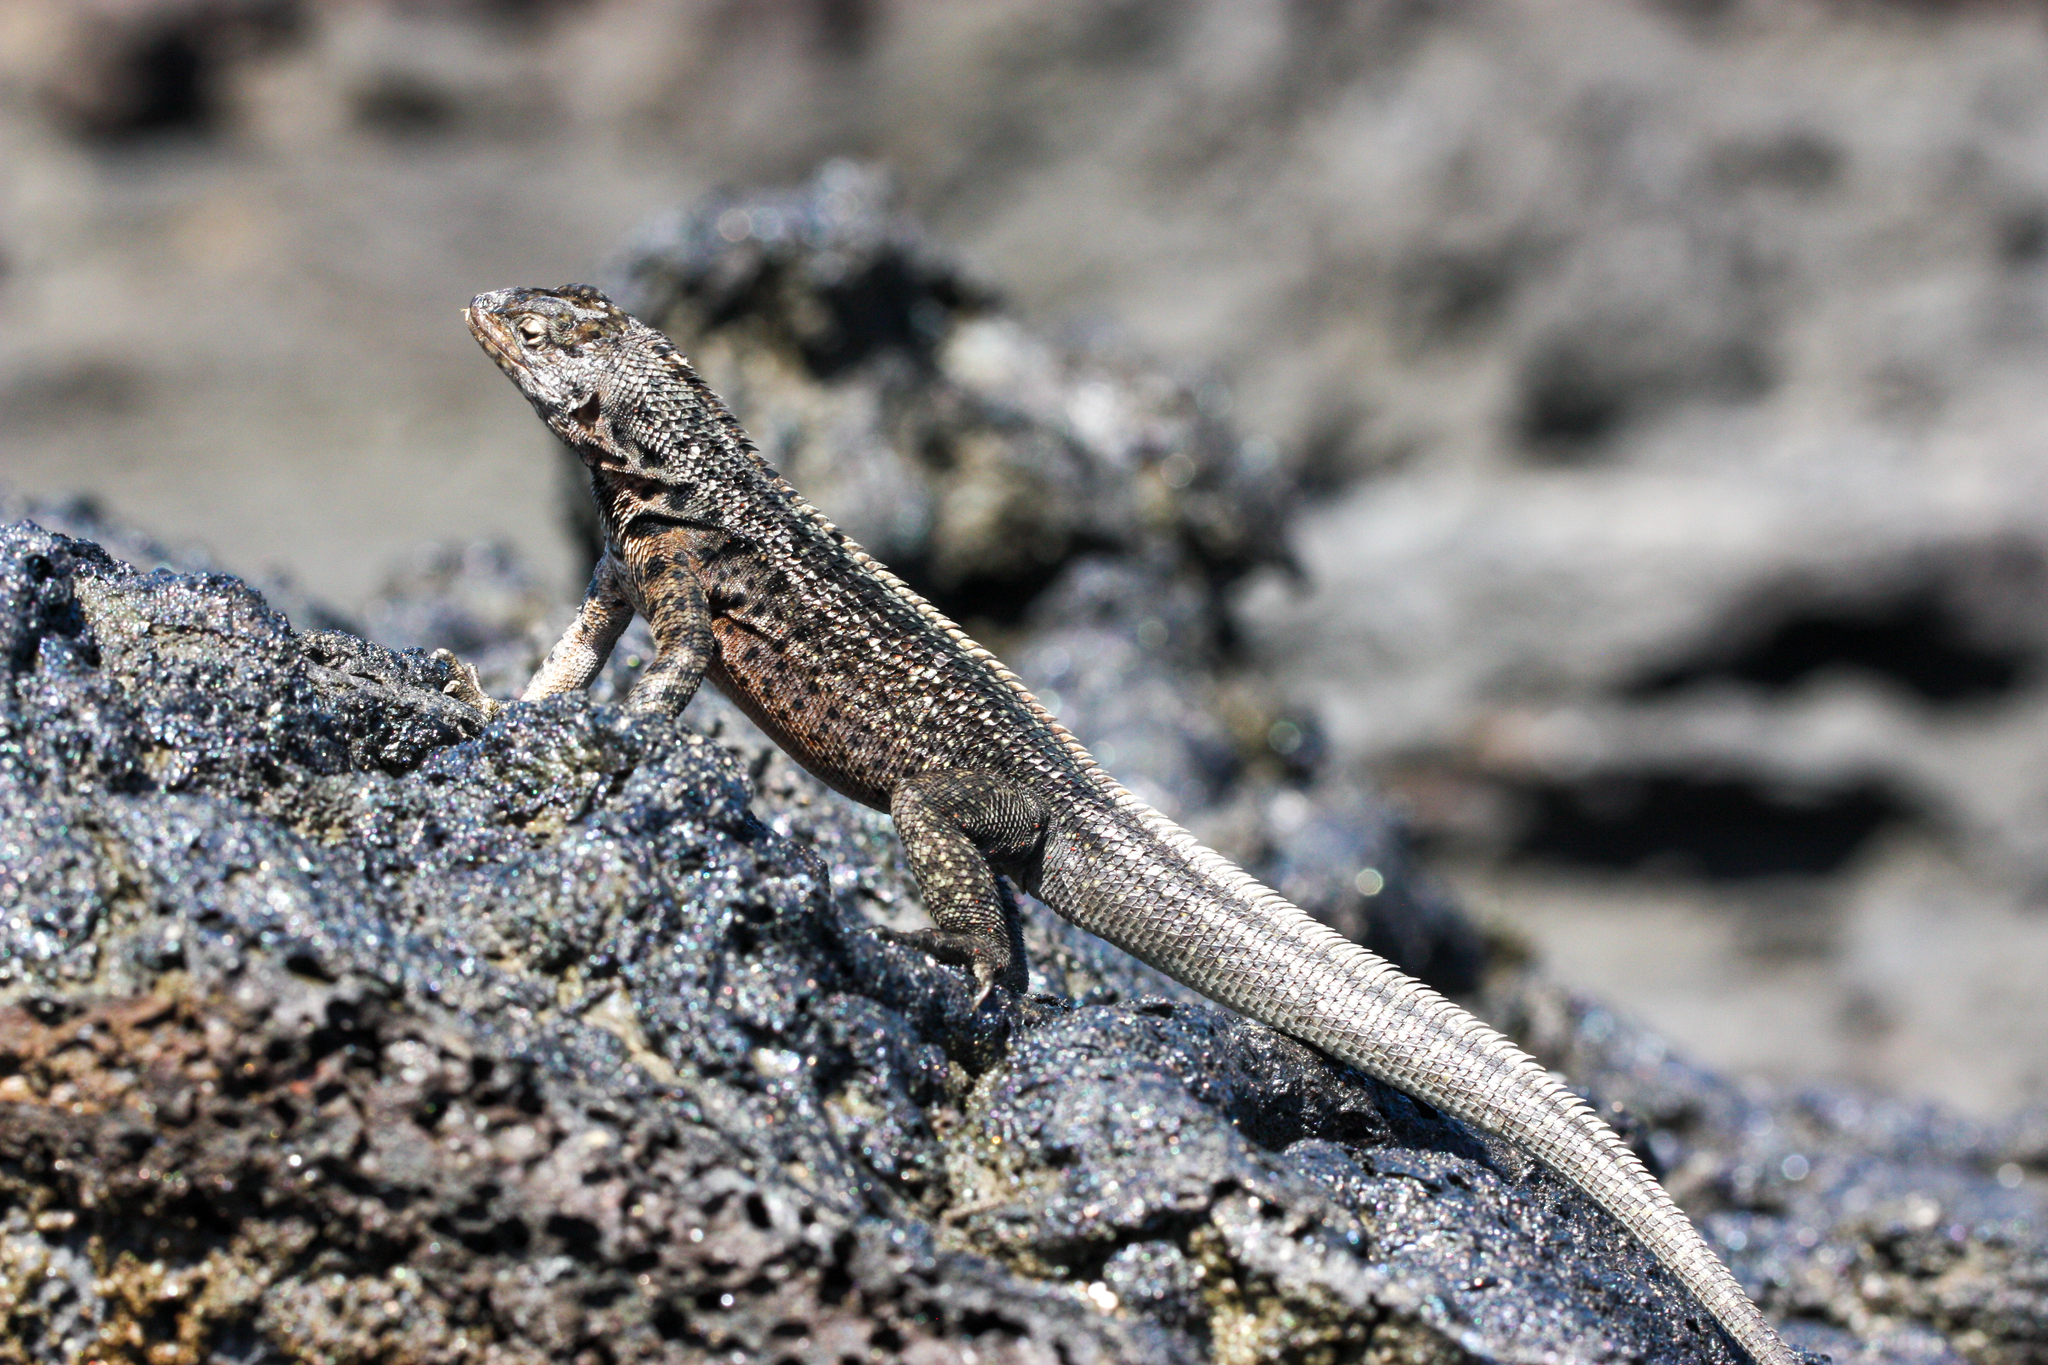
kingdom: Animalia
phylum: Chordata
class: Squamata
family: Tropiduridae
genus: Microlophus
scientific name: Microlophus jacobii
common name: Santiago lava lizard
